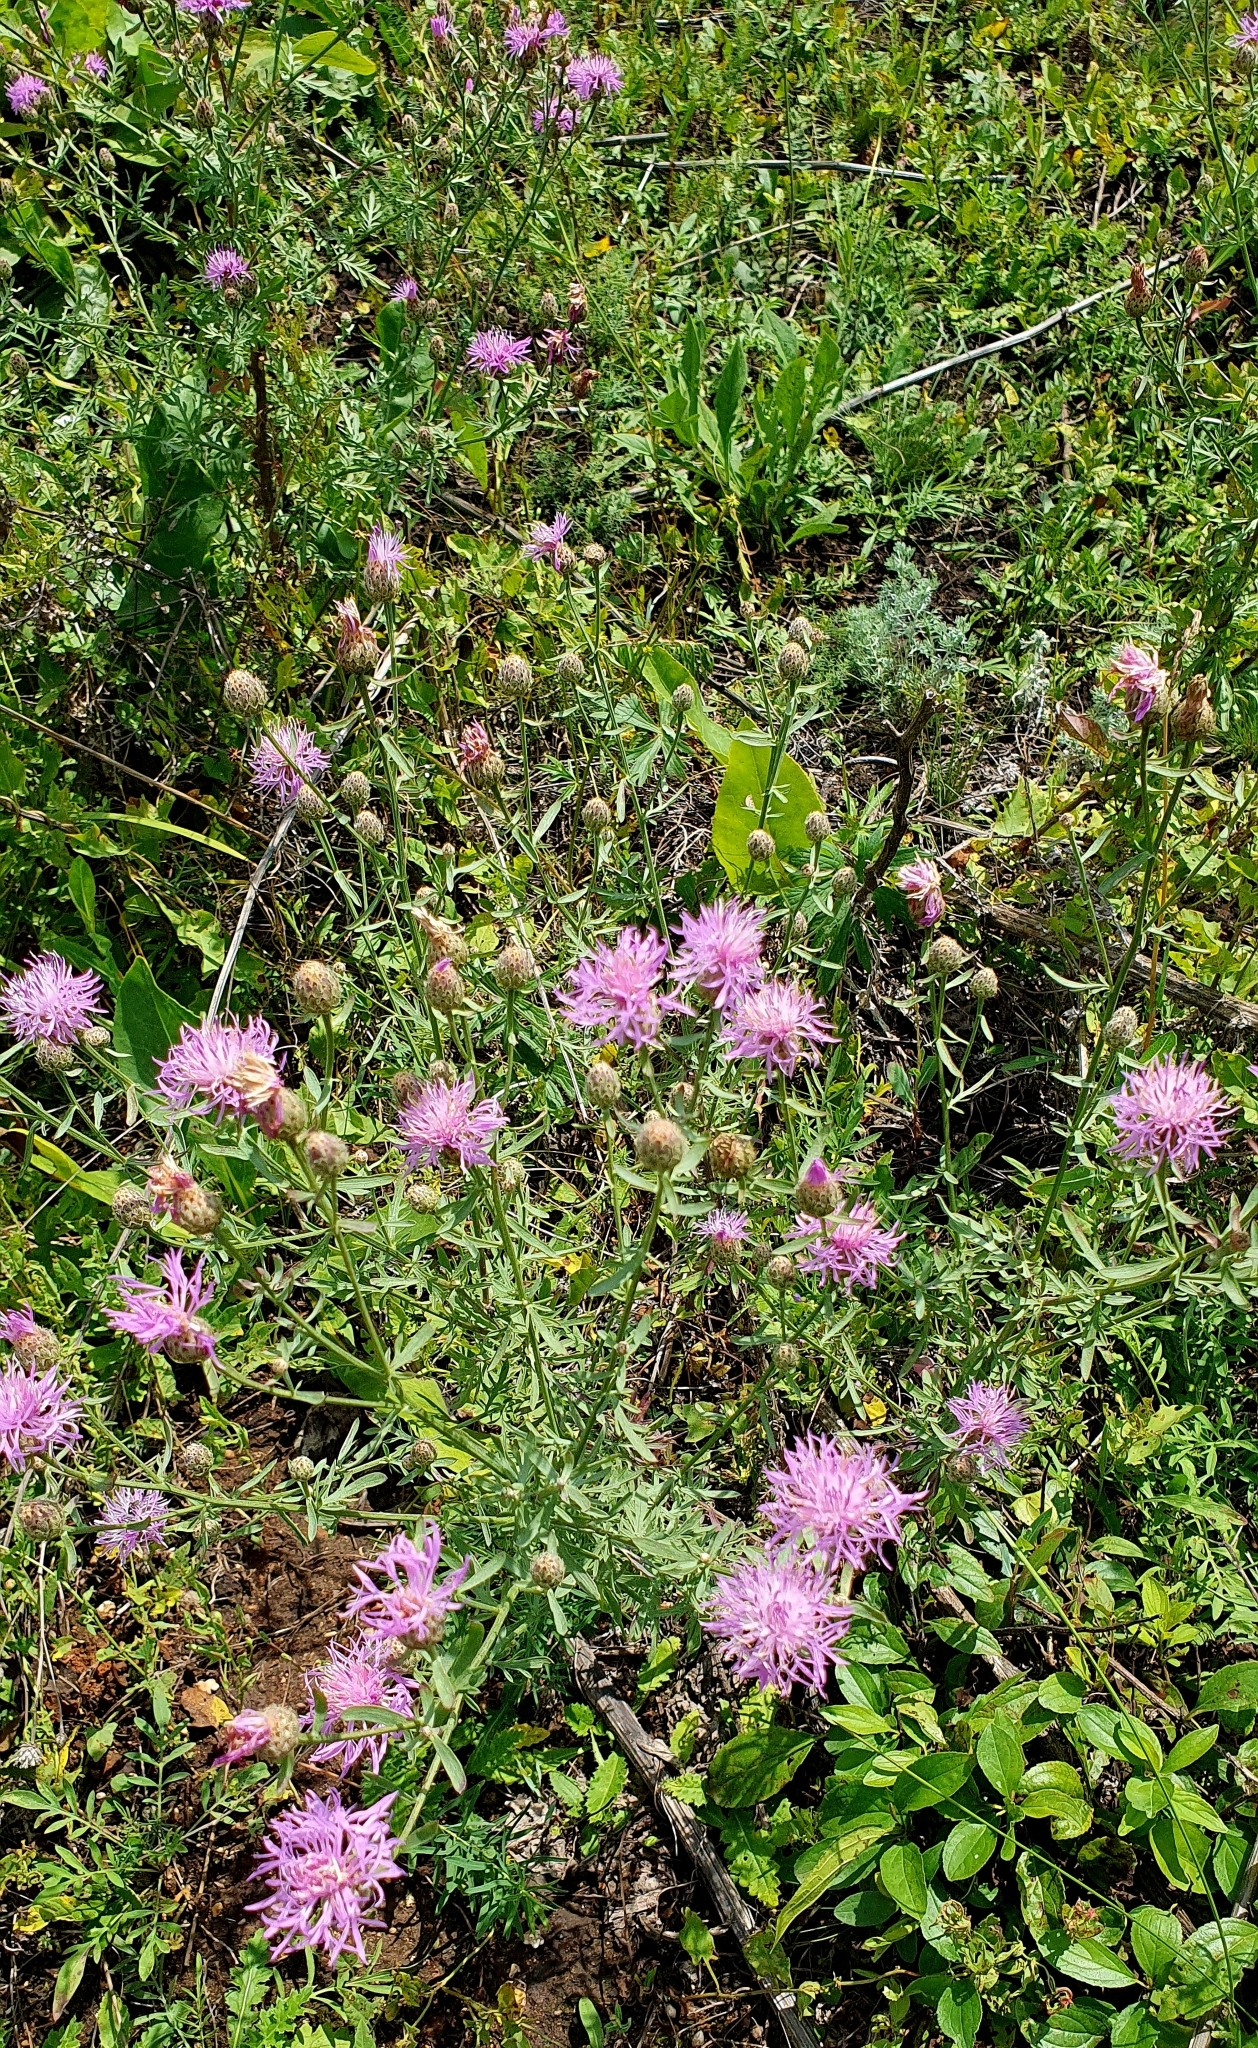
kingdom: Plantae
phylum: Tracheophyta
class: Magnoliopsida
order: Asterales
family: Asteraceae
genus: Centaurea
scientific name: Centaurea stoebe
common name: Spotted knapweed
